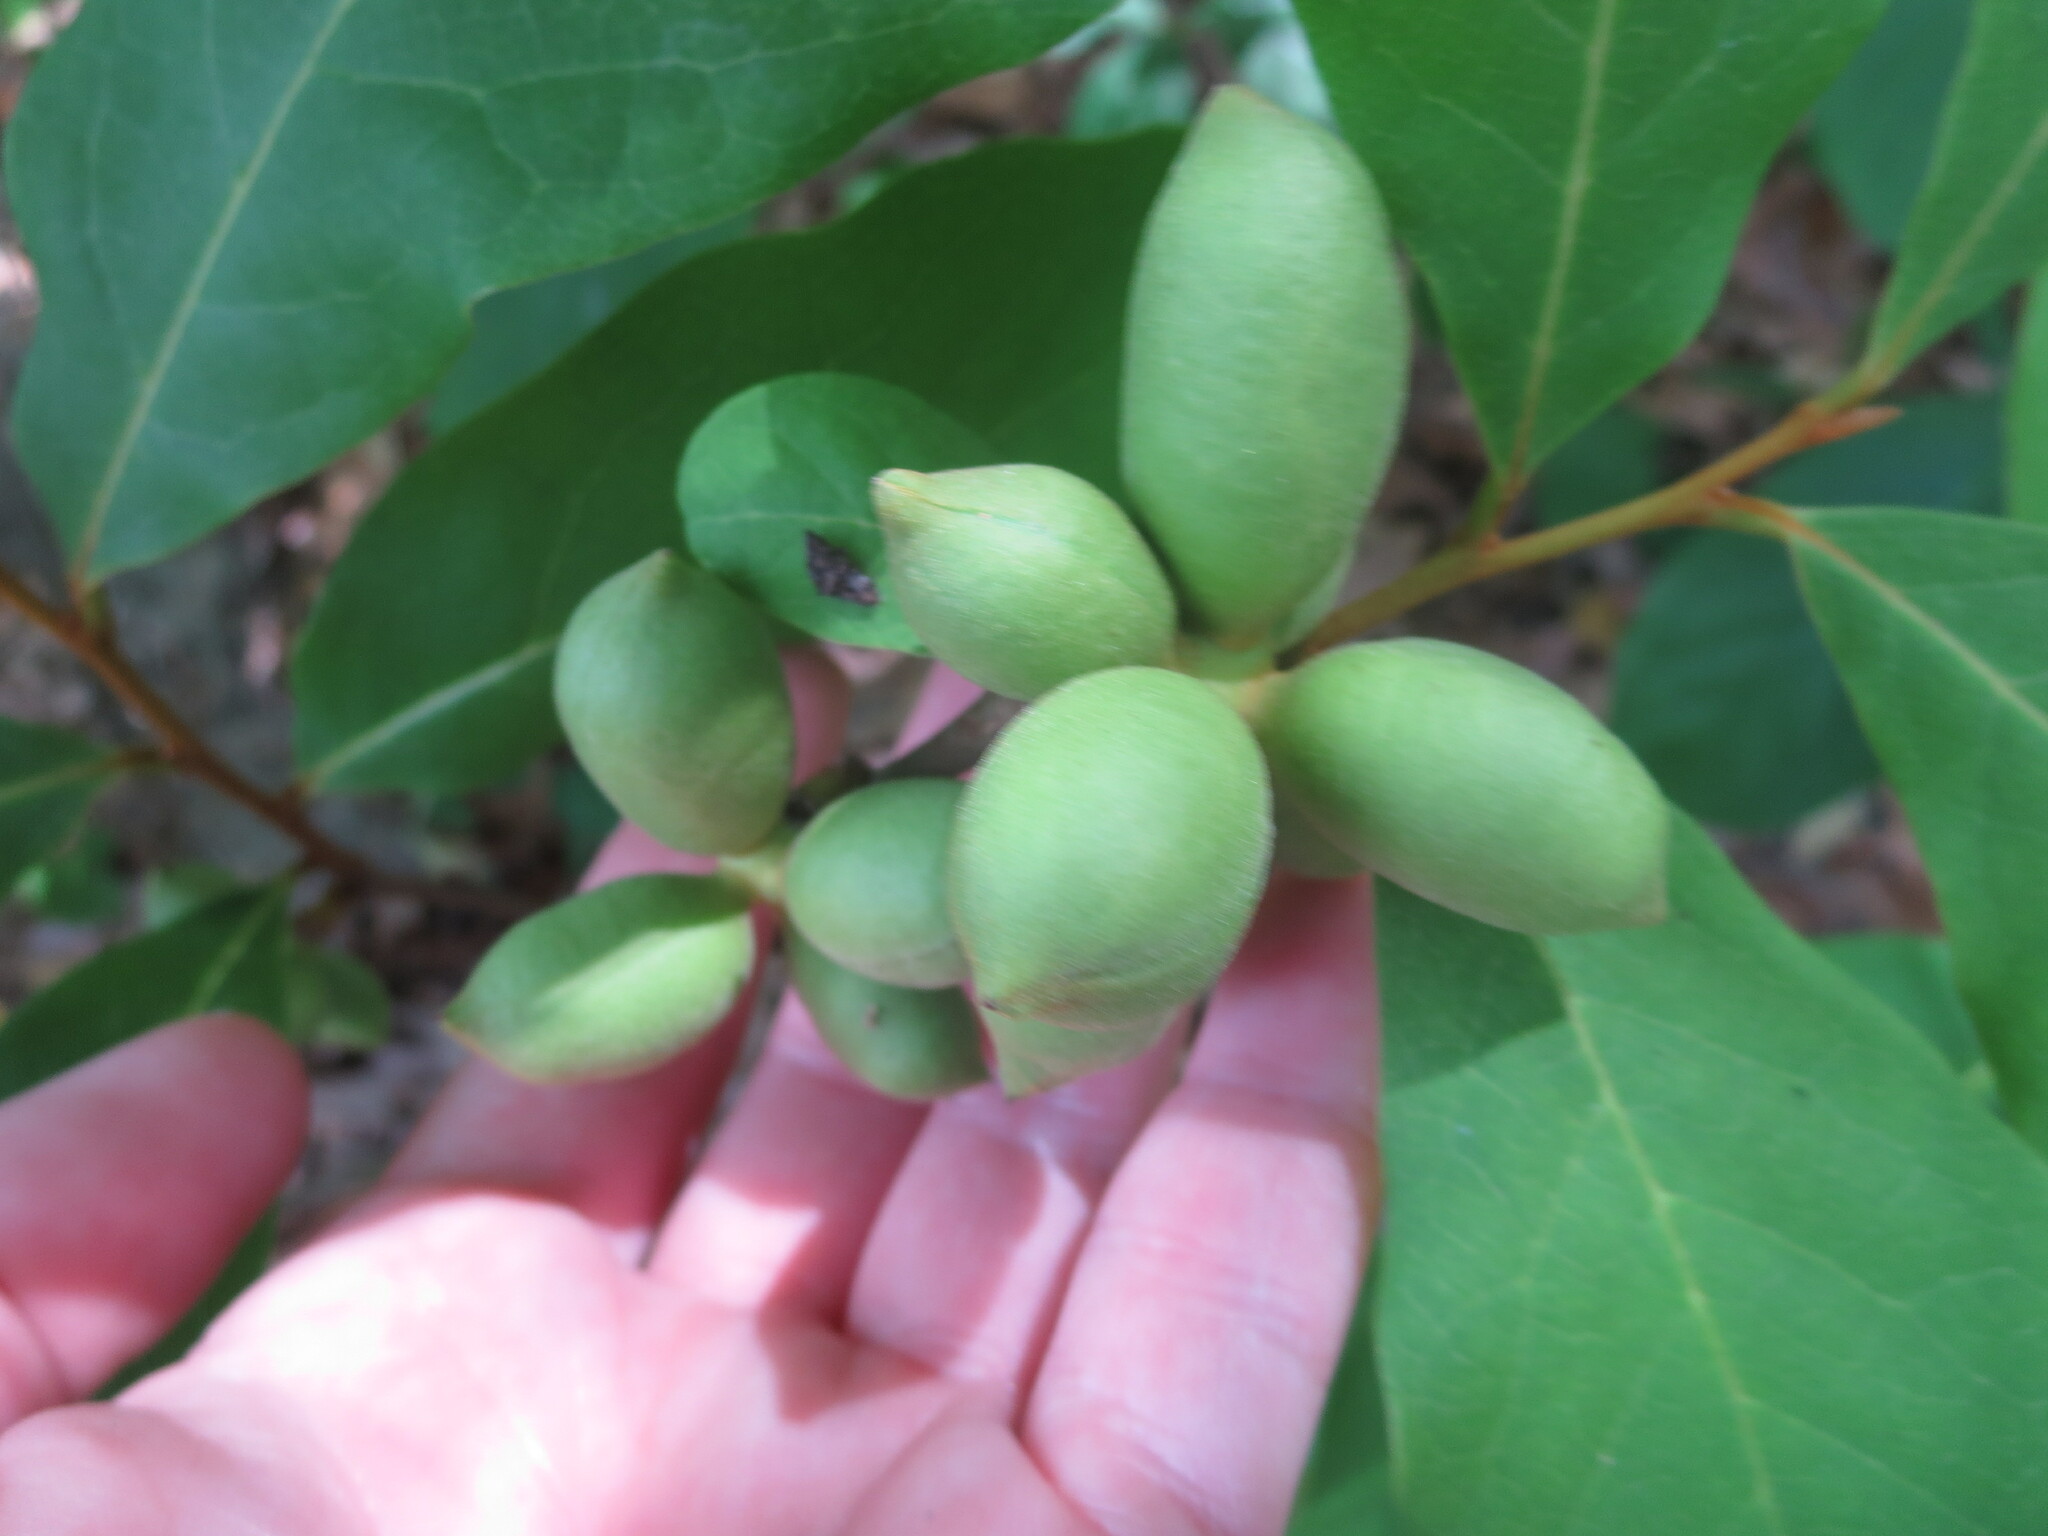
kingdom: Plantae
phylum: Tracheophyta
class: Magnoliopsida
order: Magnoliales
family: Annonaceae
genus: Asimina
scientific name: Asimina parviflora
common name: Dwarf pawpaw
